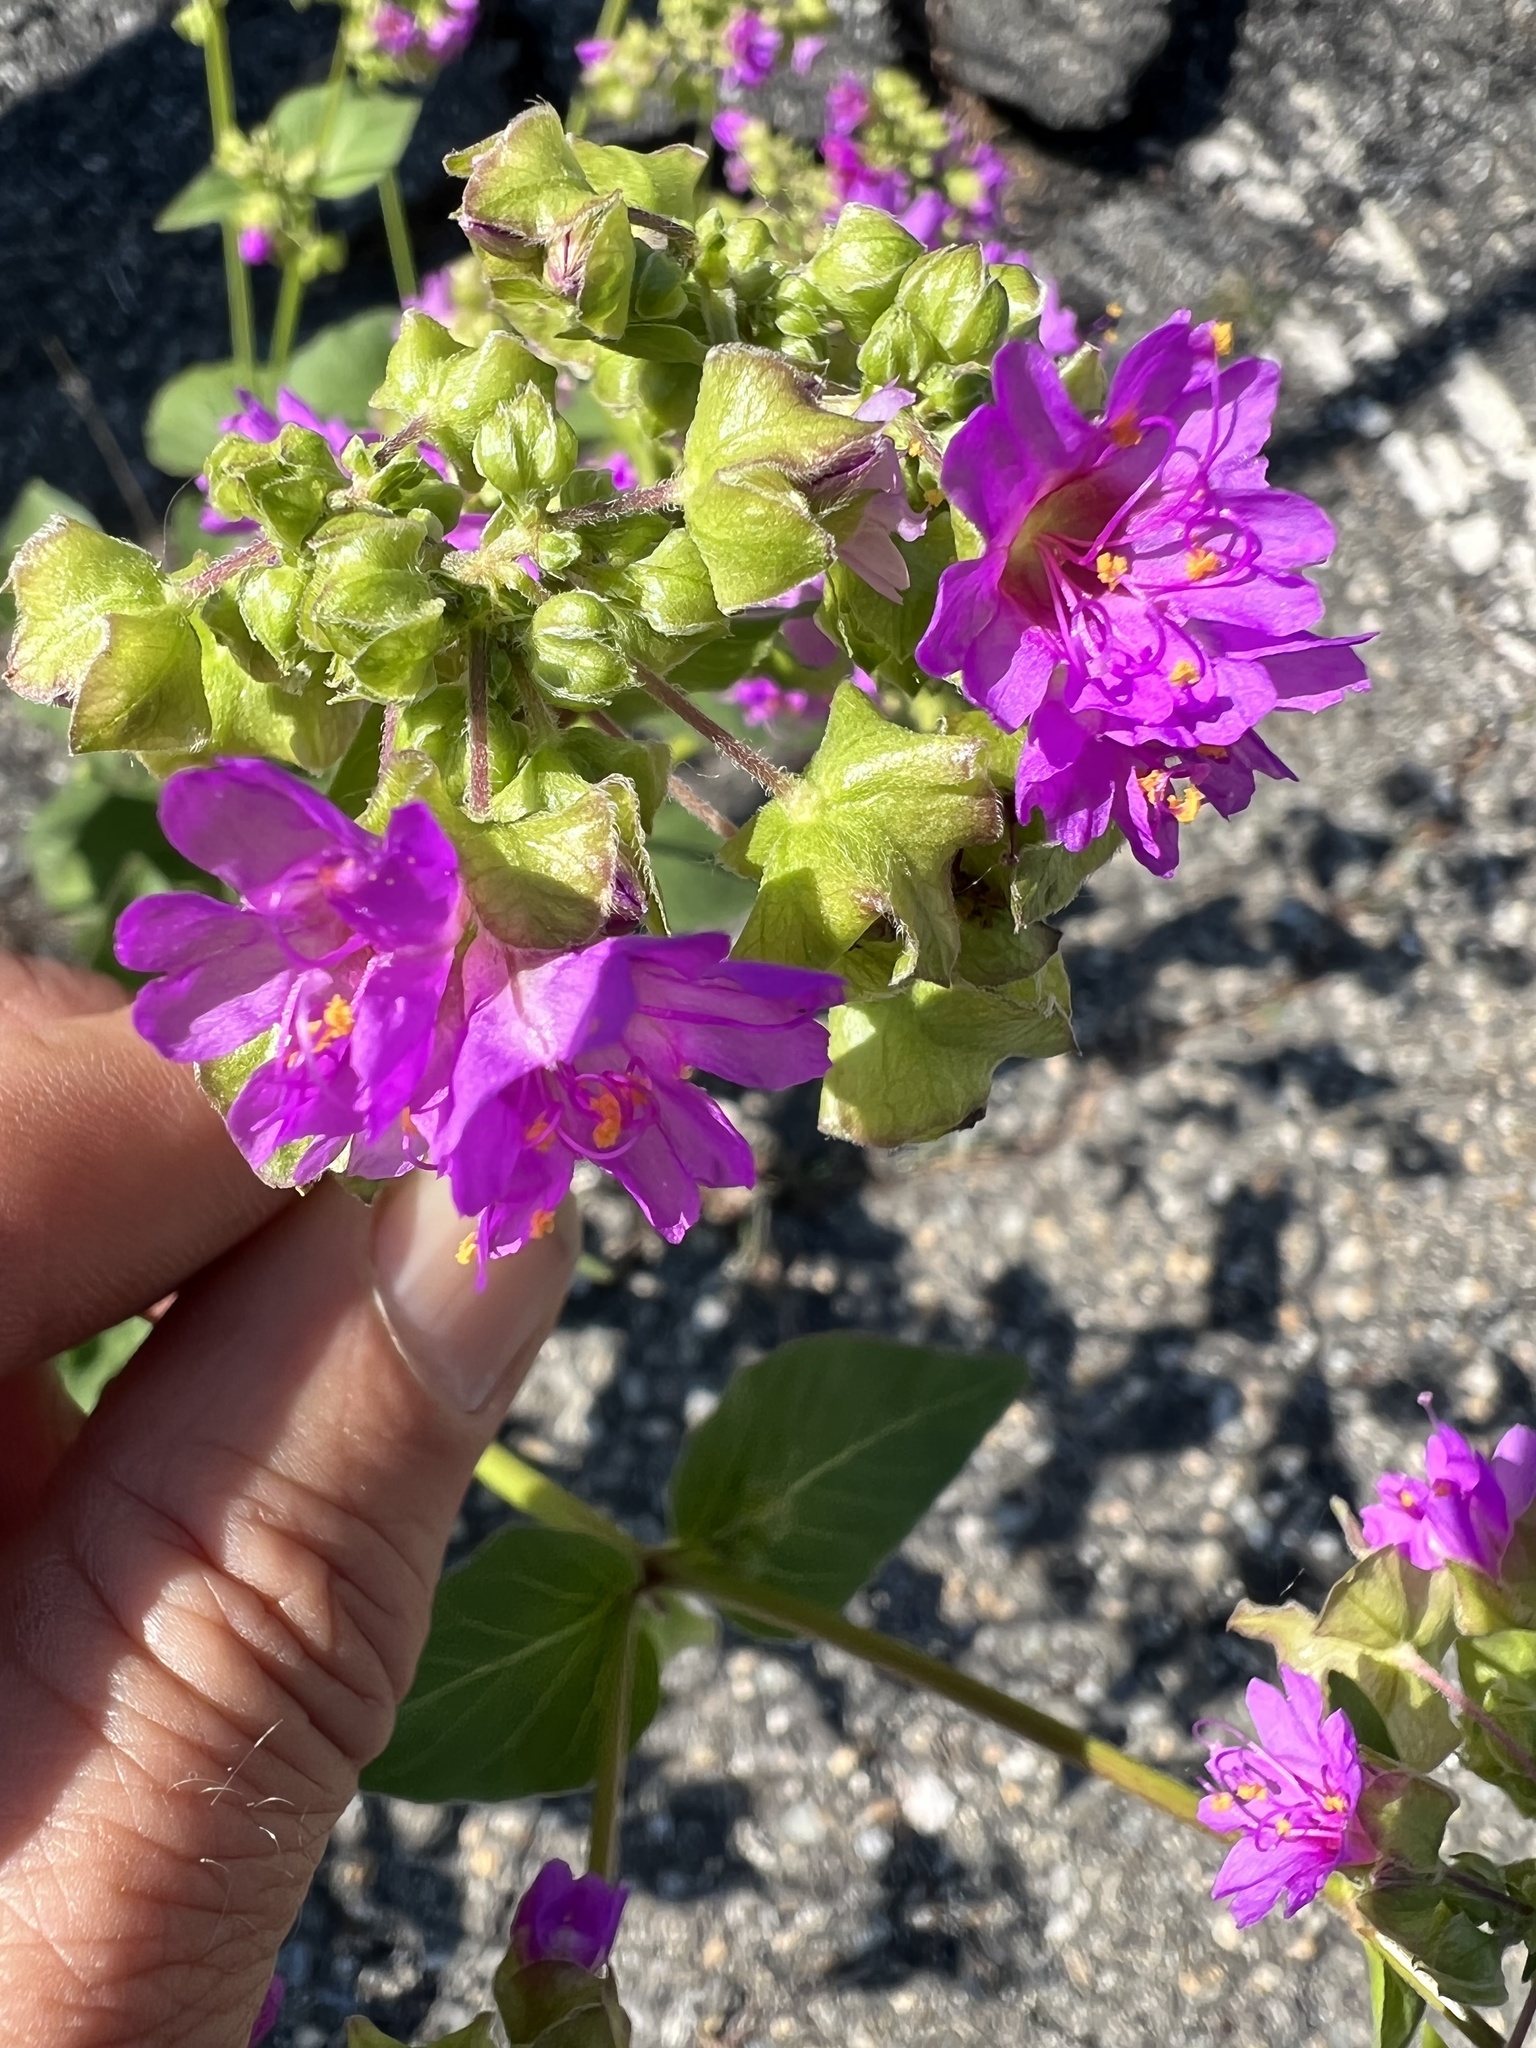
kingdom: Plantae
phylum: Tracheophyta
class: Magnoliopsida
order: Caryophyllales
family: Nyctaginaceae
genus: Mirabilis
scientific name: Mirabilis nyctaginea
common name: Umbrella wort
